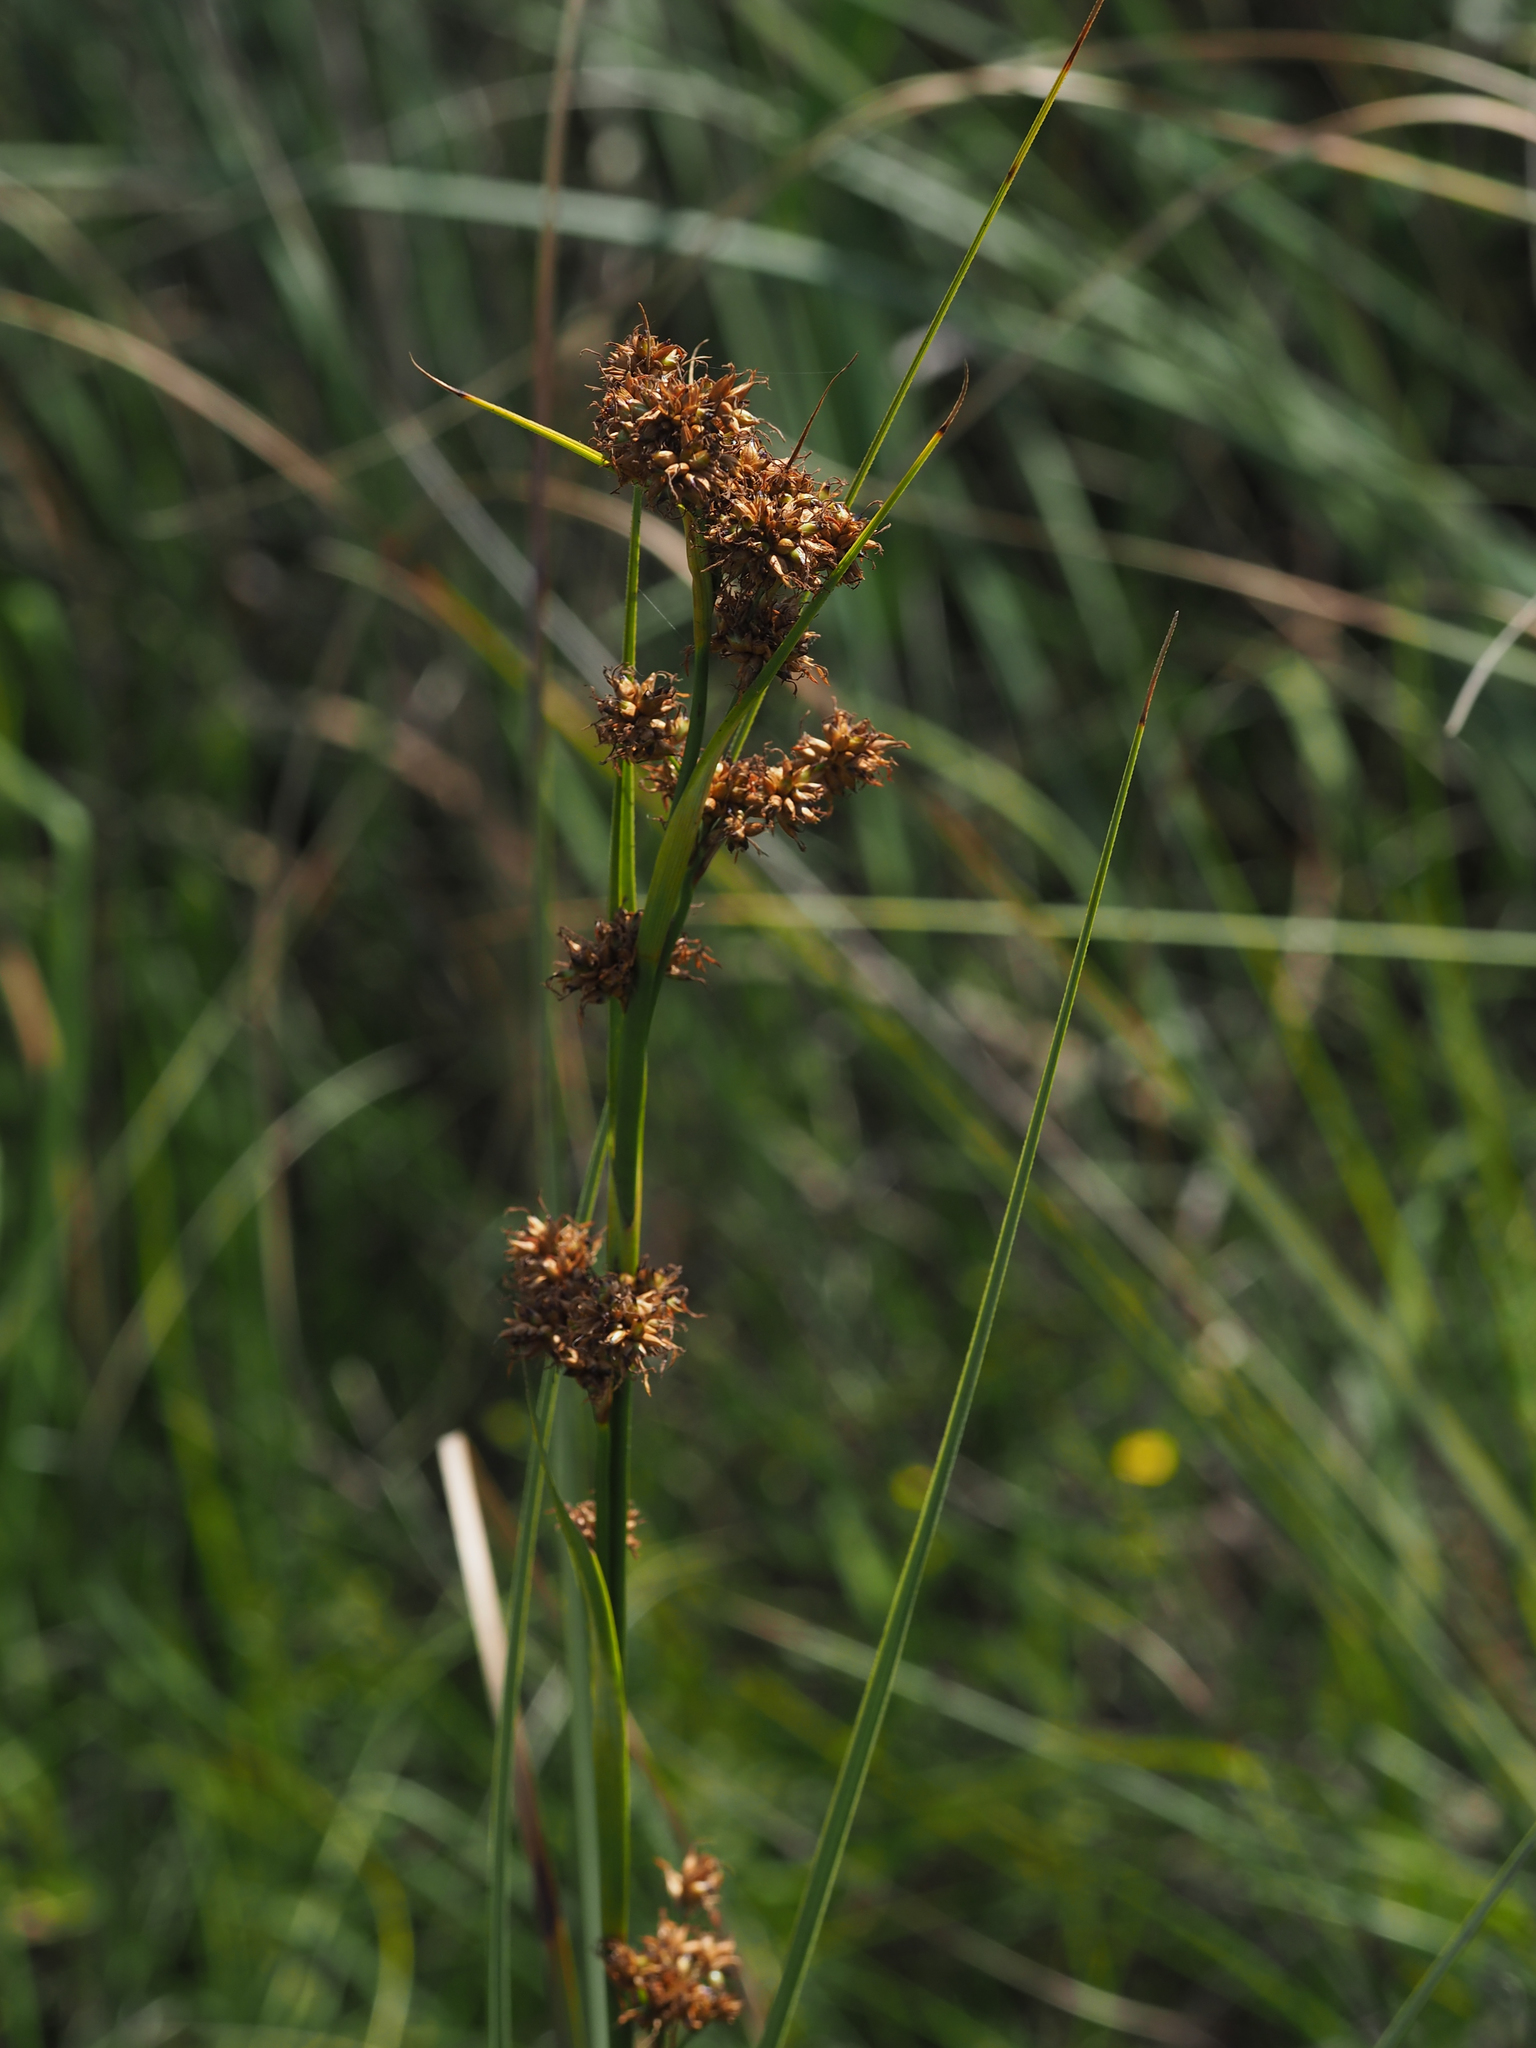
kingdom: Plantae
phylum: Tracheophyta
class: Liliopsida
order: Poales
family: Cyperaceae
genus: Cladium
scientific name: Cladium mariscus
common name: Great fen-sedge
